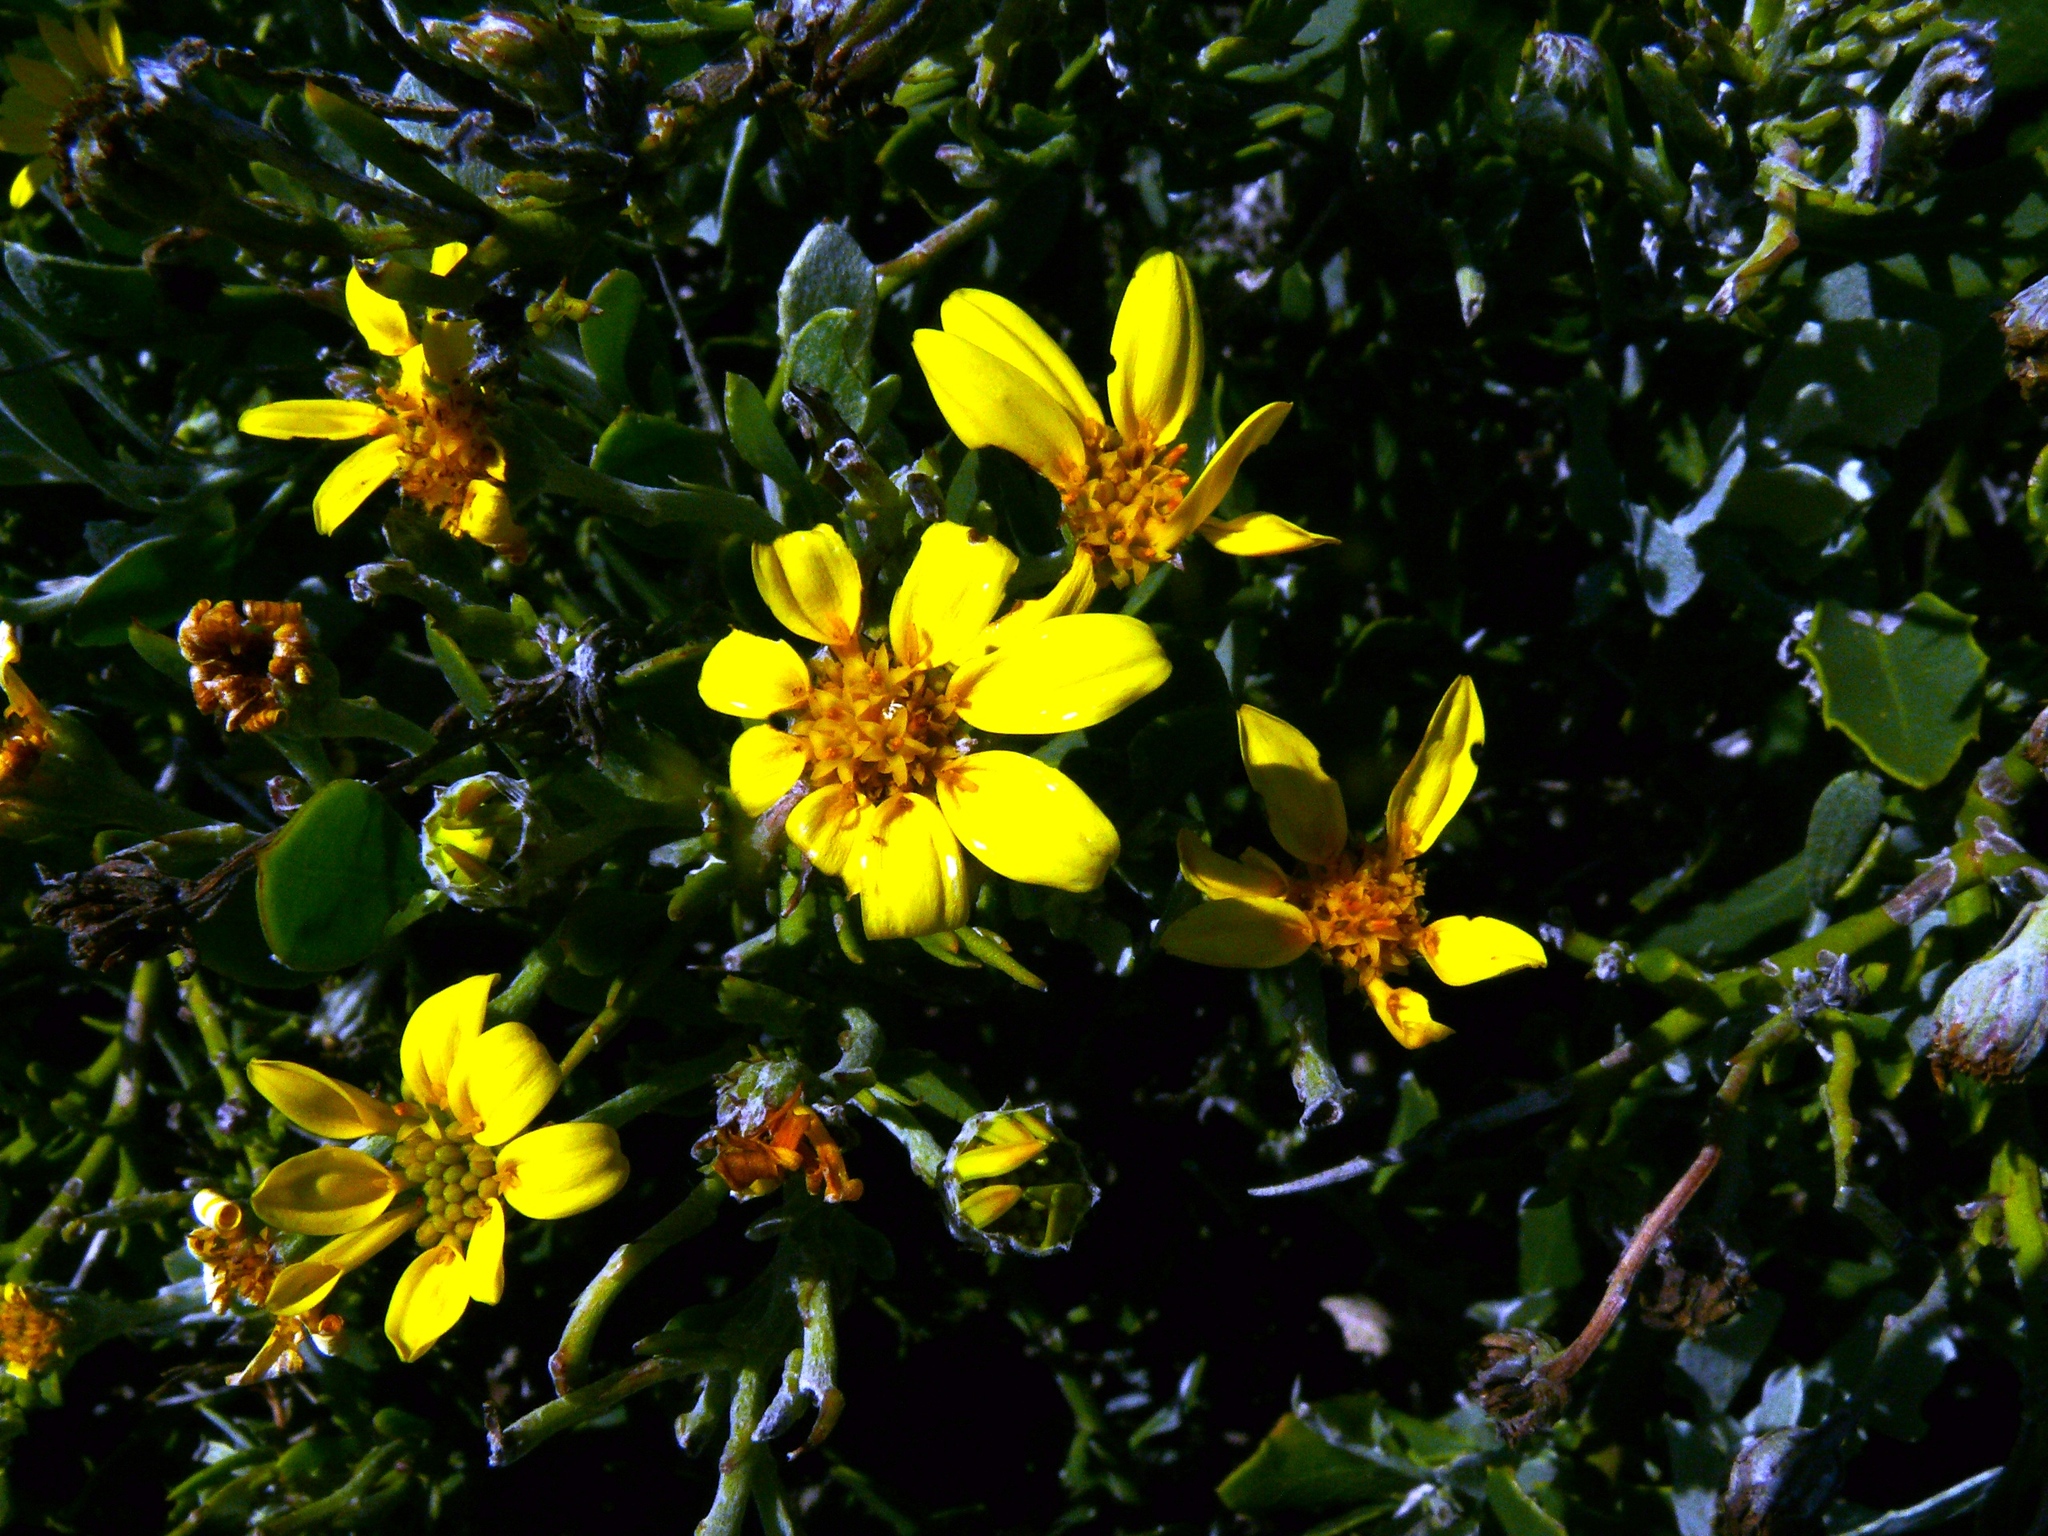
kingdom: Plantae
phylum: Tracheophyta
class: Magnoliopsida
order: Asterales
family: Asteraceae
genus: Osteospermum
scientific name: Osteospermum incanum
